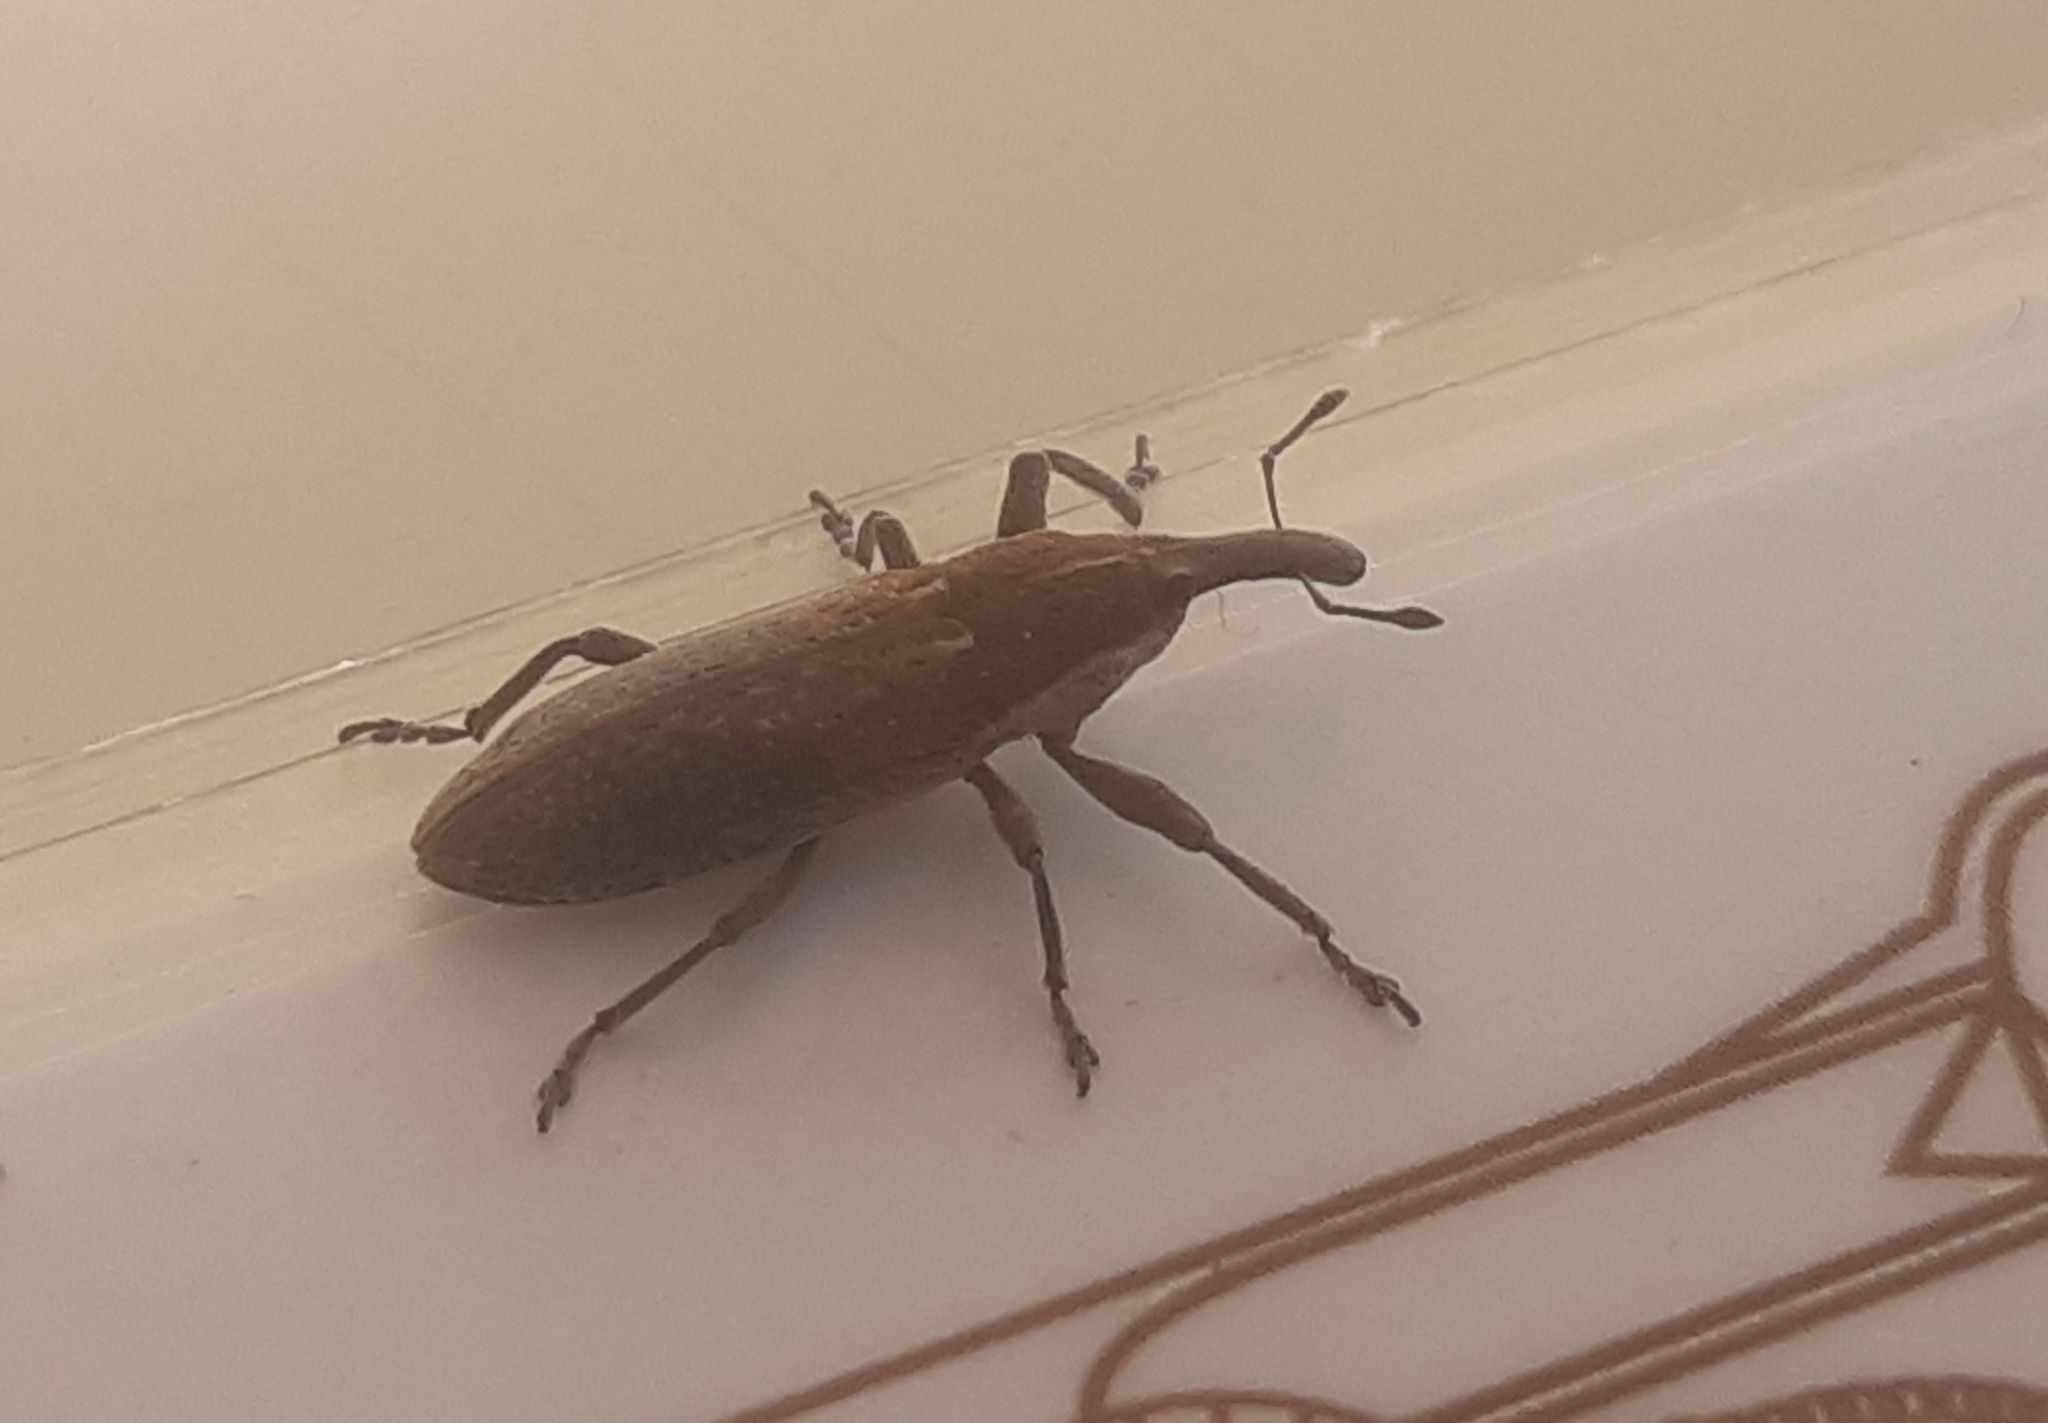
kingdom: Animalia
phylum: Arthropoda
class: Insecta
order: Coleoptera
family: Curculionidae
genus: Lixus
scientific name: Lixus punctiventris
